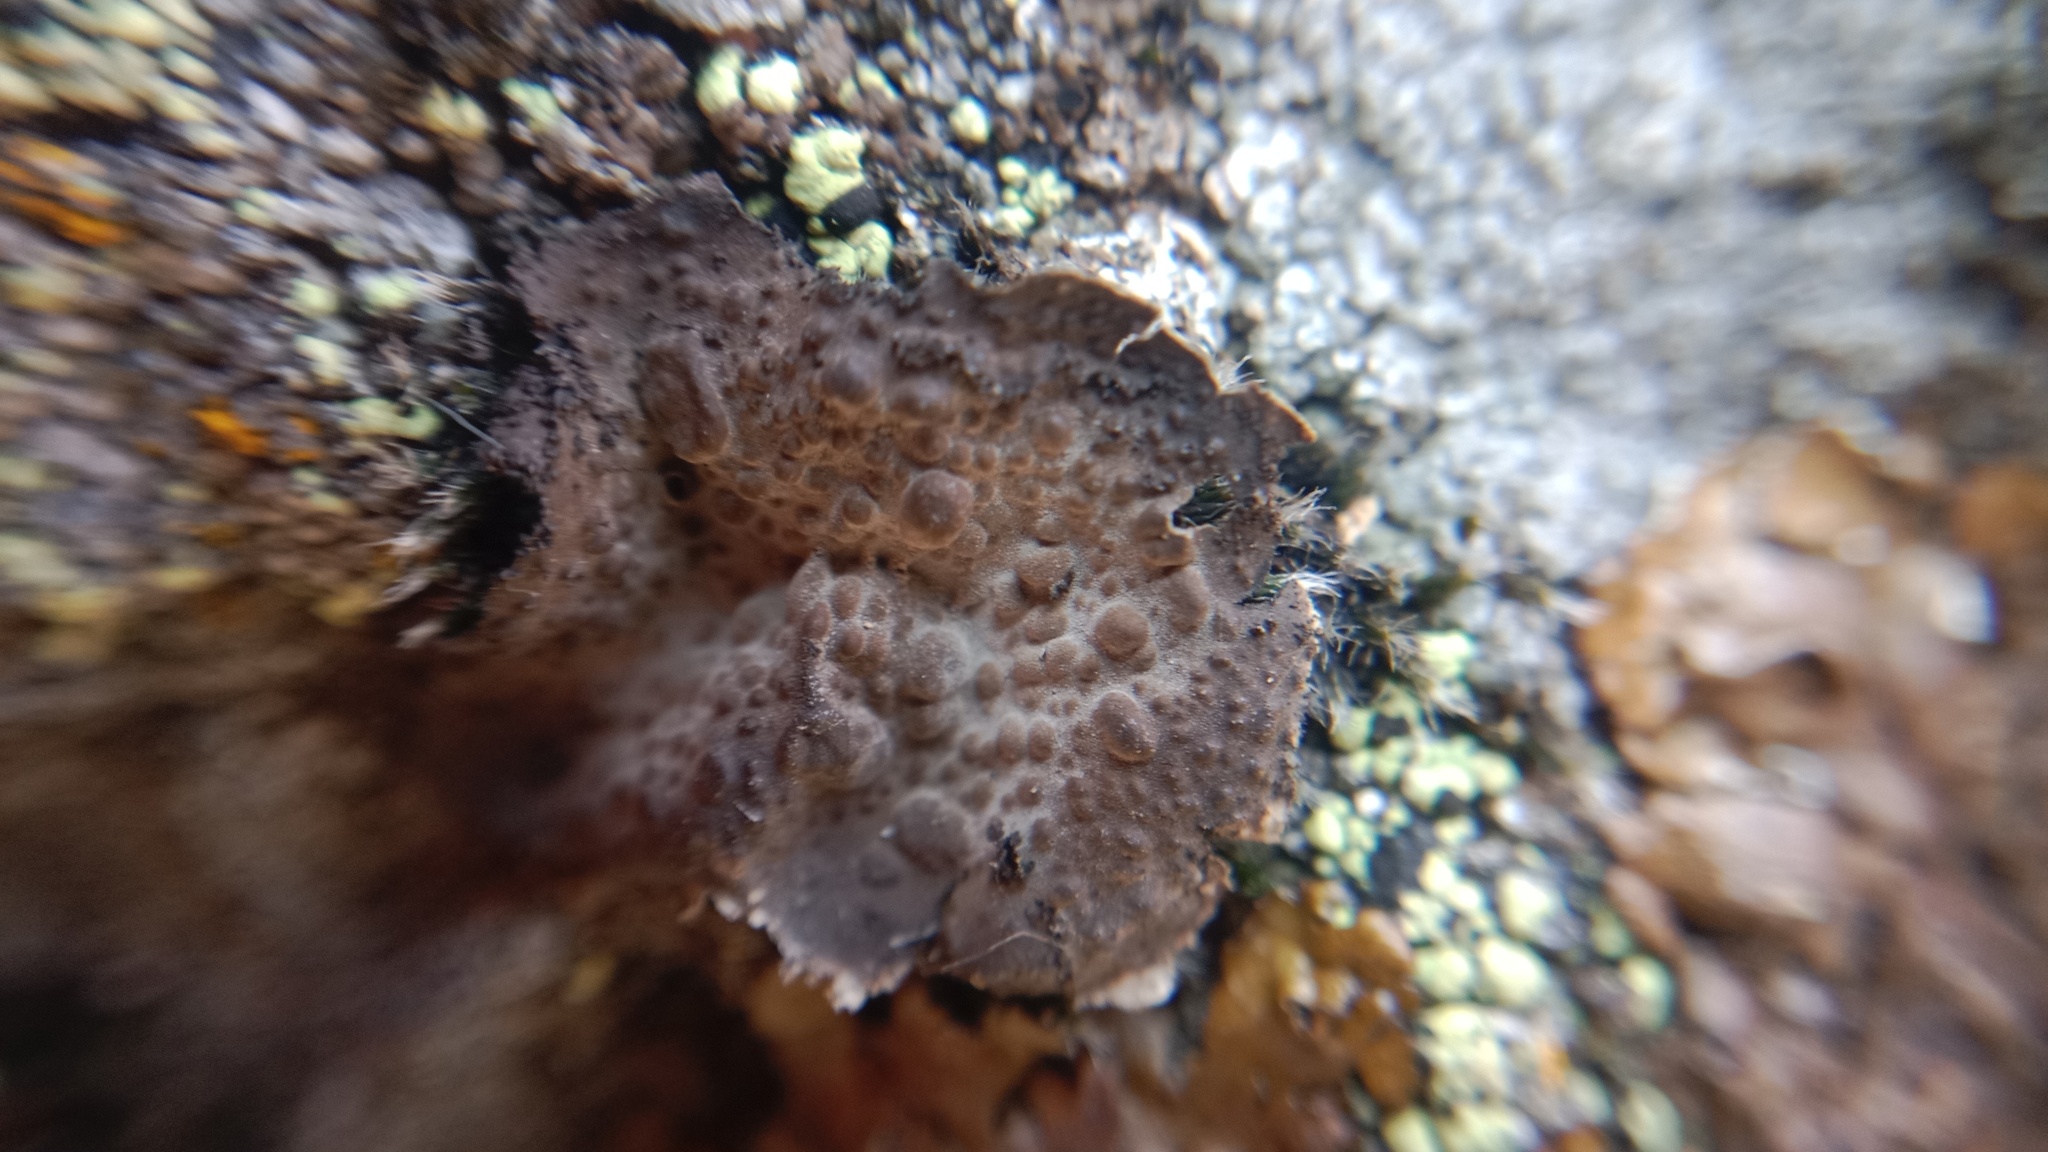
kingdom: Fungi
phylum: Ascomycota
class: Lecanoromycetes
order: Umbilicariales
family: Umbilicariaceae
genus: Lasallia
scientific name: Lasallia pustulata
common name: Blistered toadskin lichen
